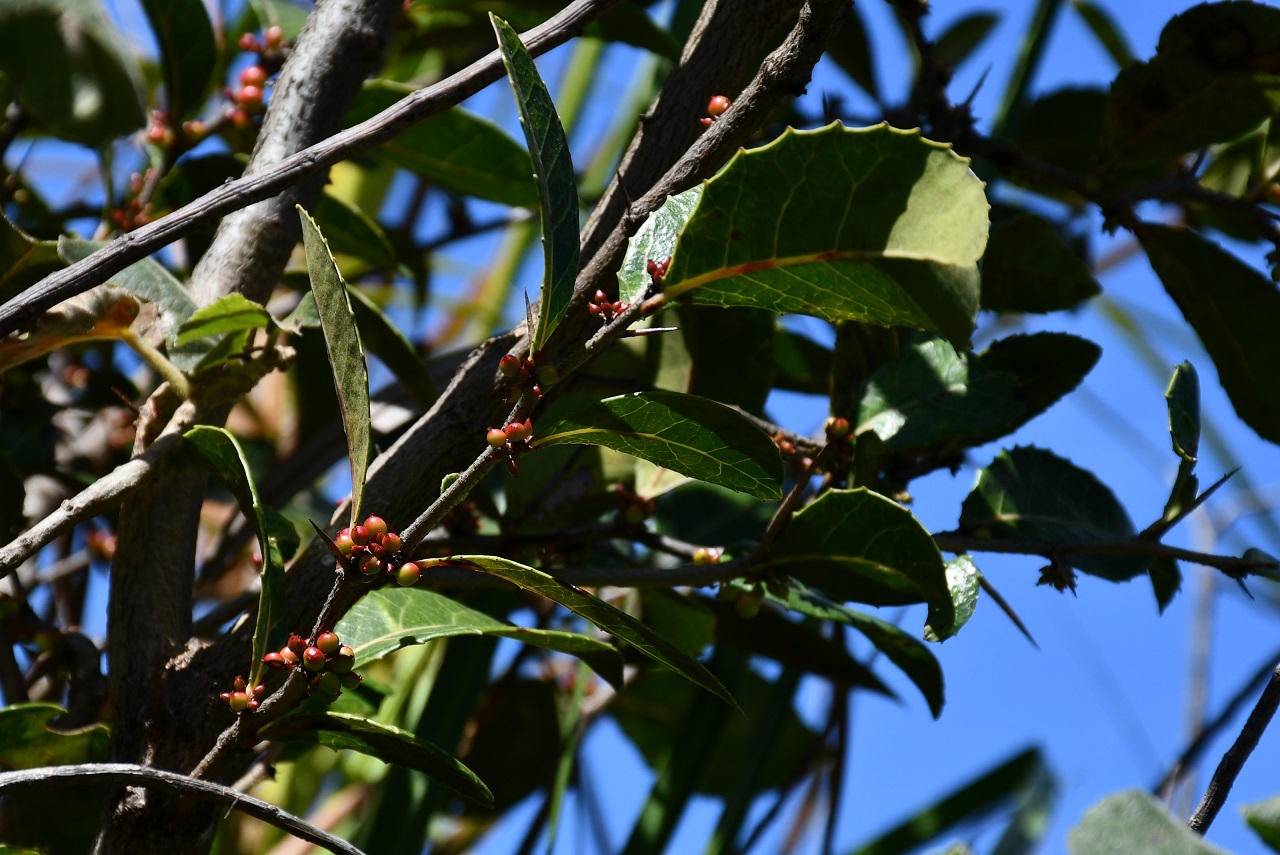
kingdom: Plantae
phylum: Tracheophyta
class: Magnoliopsida
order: Malpighiales
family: Salicaceae
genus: Xylosma
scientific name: Xylosma flexuosa
